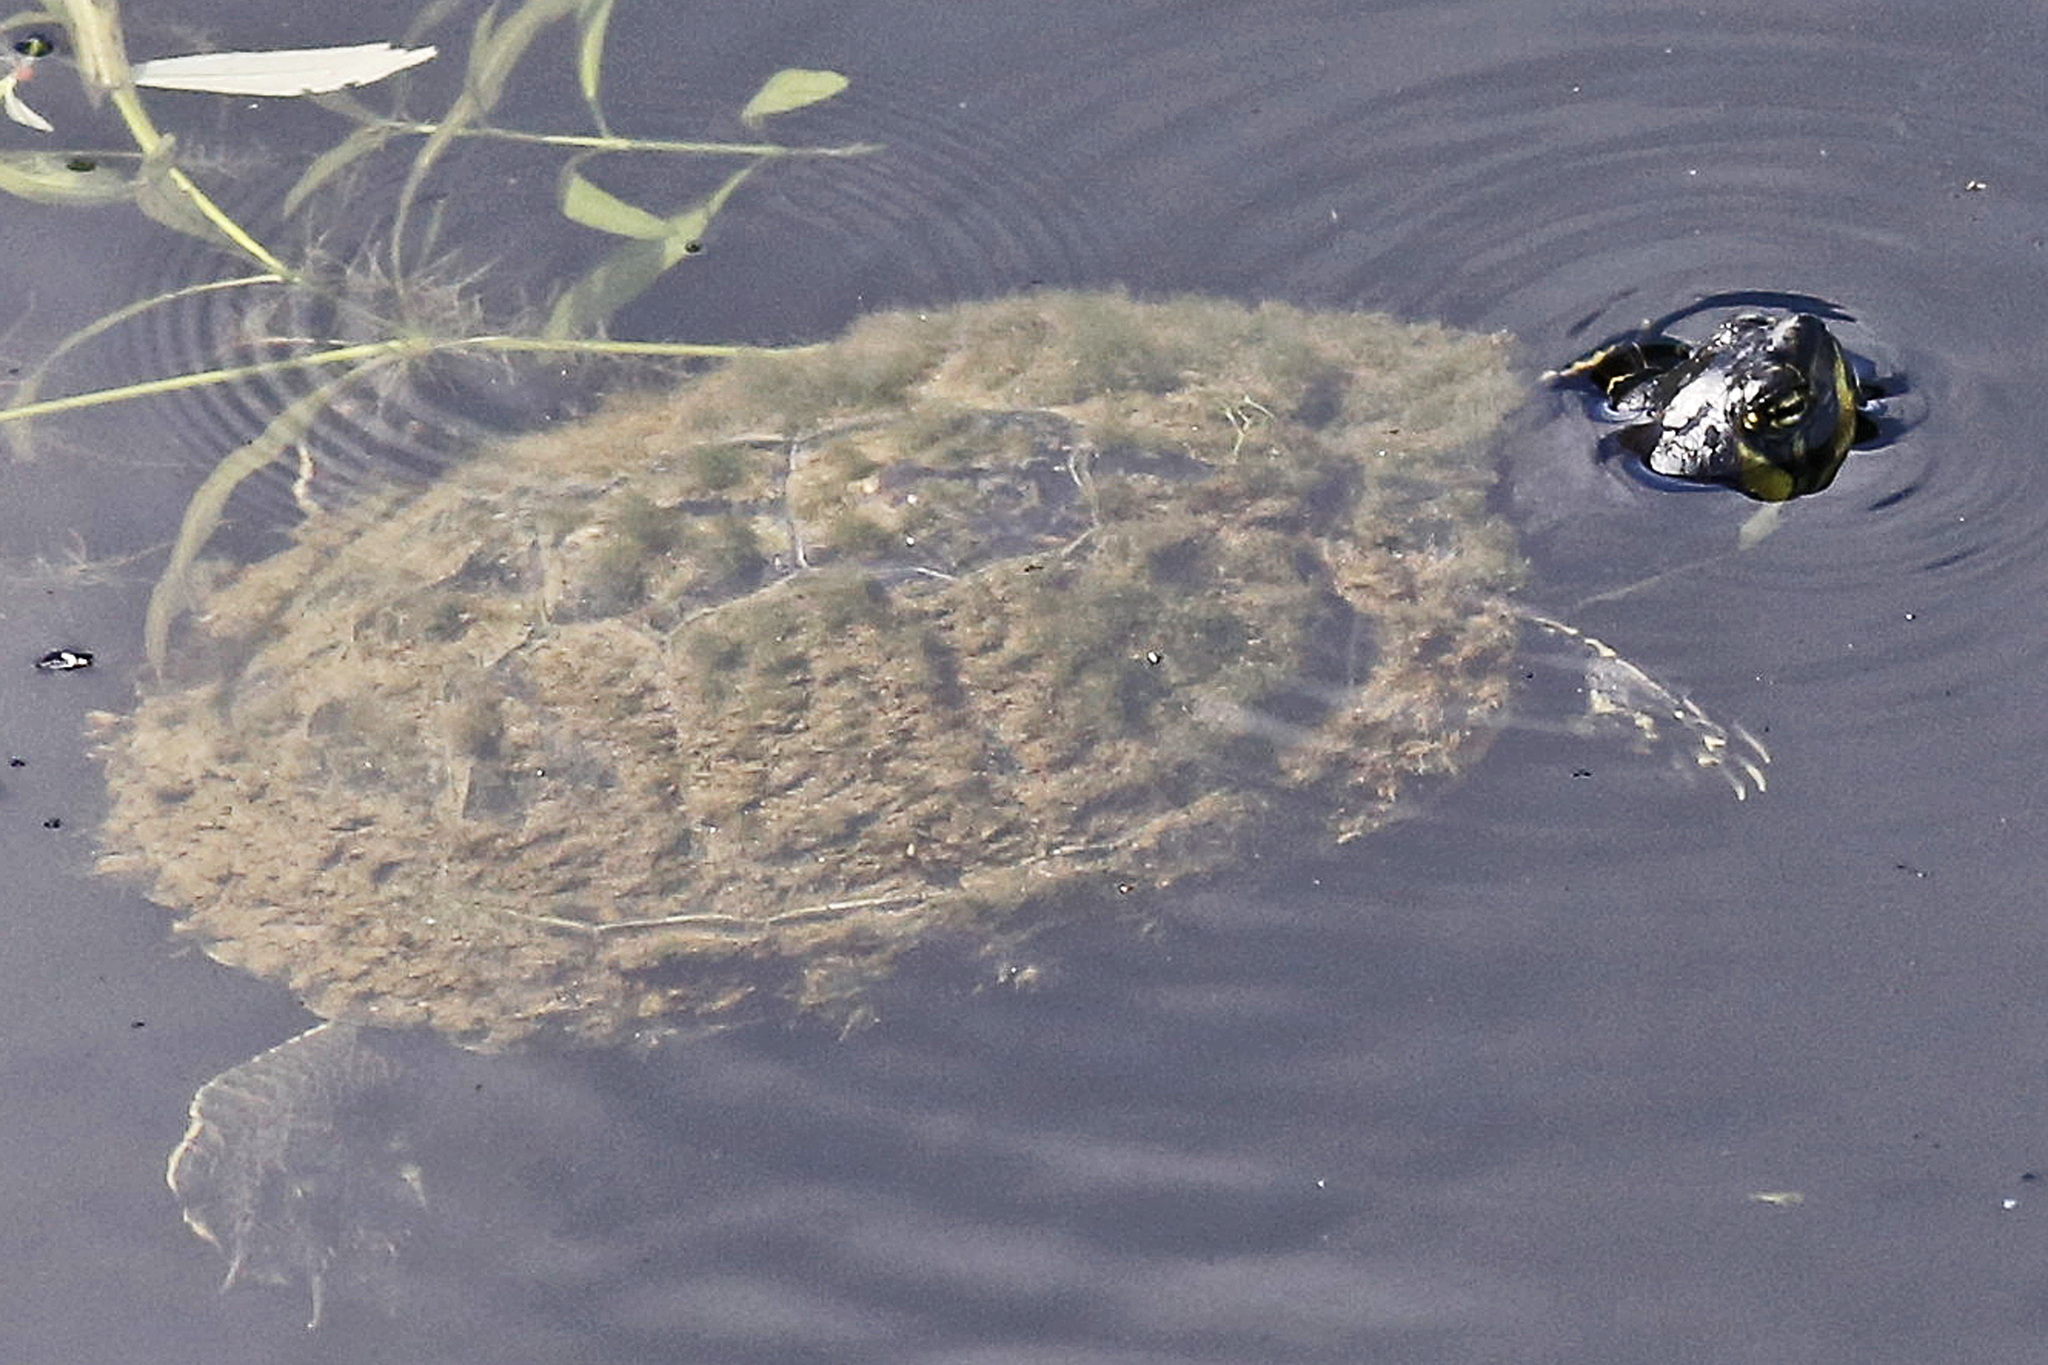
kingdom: Animalia
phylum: Chordata
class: Testudines
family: Emydidae
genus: Trachemys
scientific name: Trachemys scripta
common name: Slider
